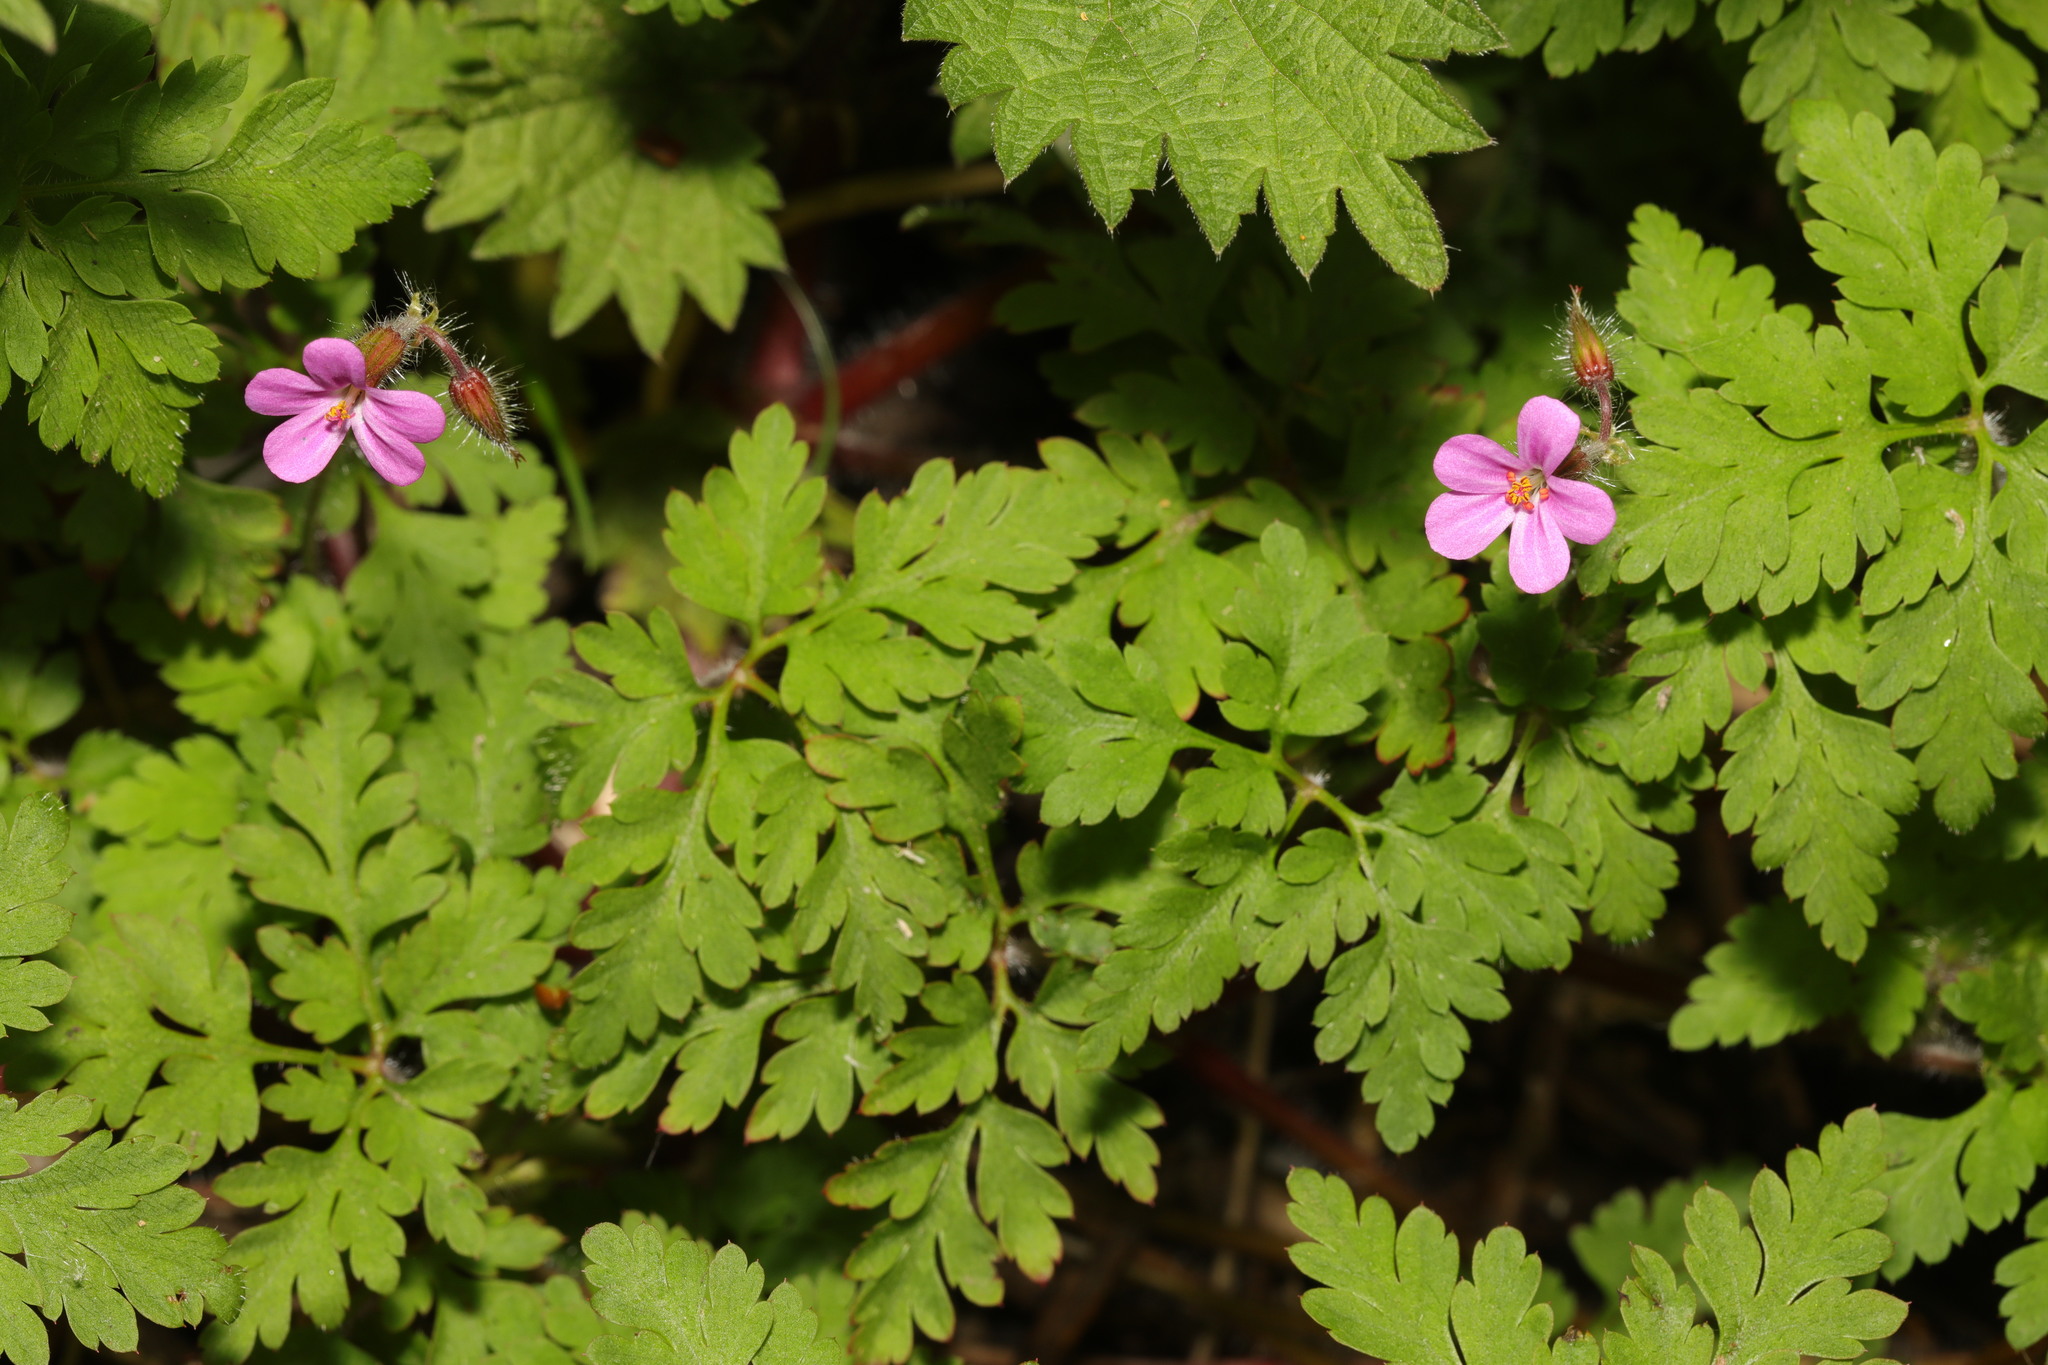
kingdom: Plantae
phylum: Tracheophyta
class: Magnoliopsida
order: Geraniales
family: Geraniaceae
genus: Geranium
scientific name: Geranium robertianum
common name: Herb-robert
